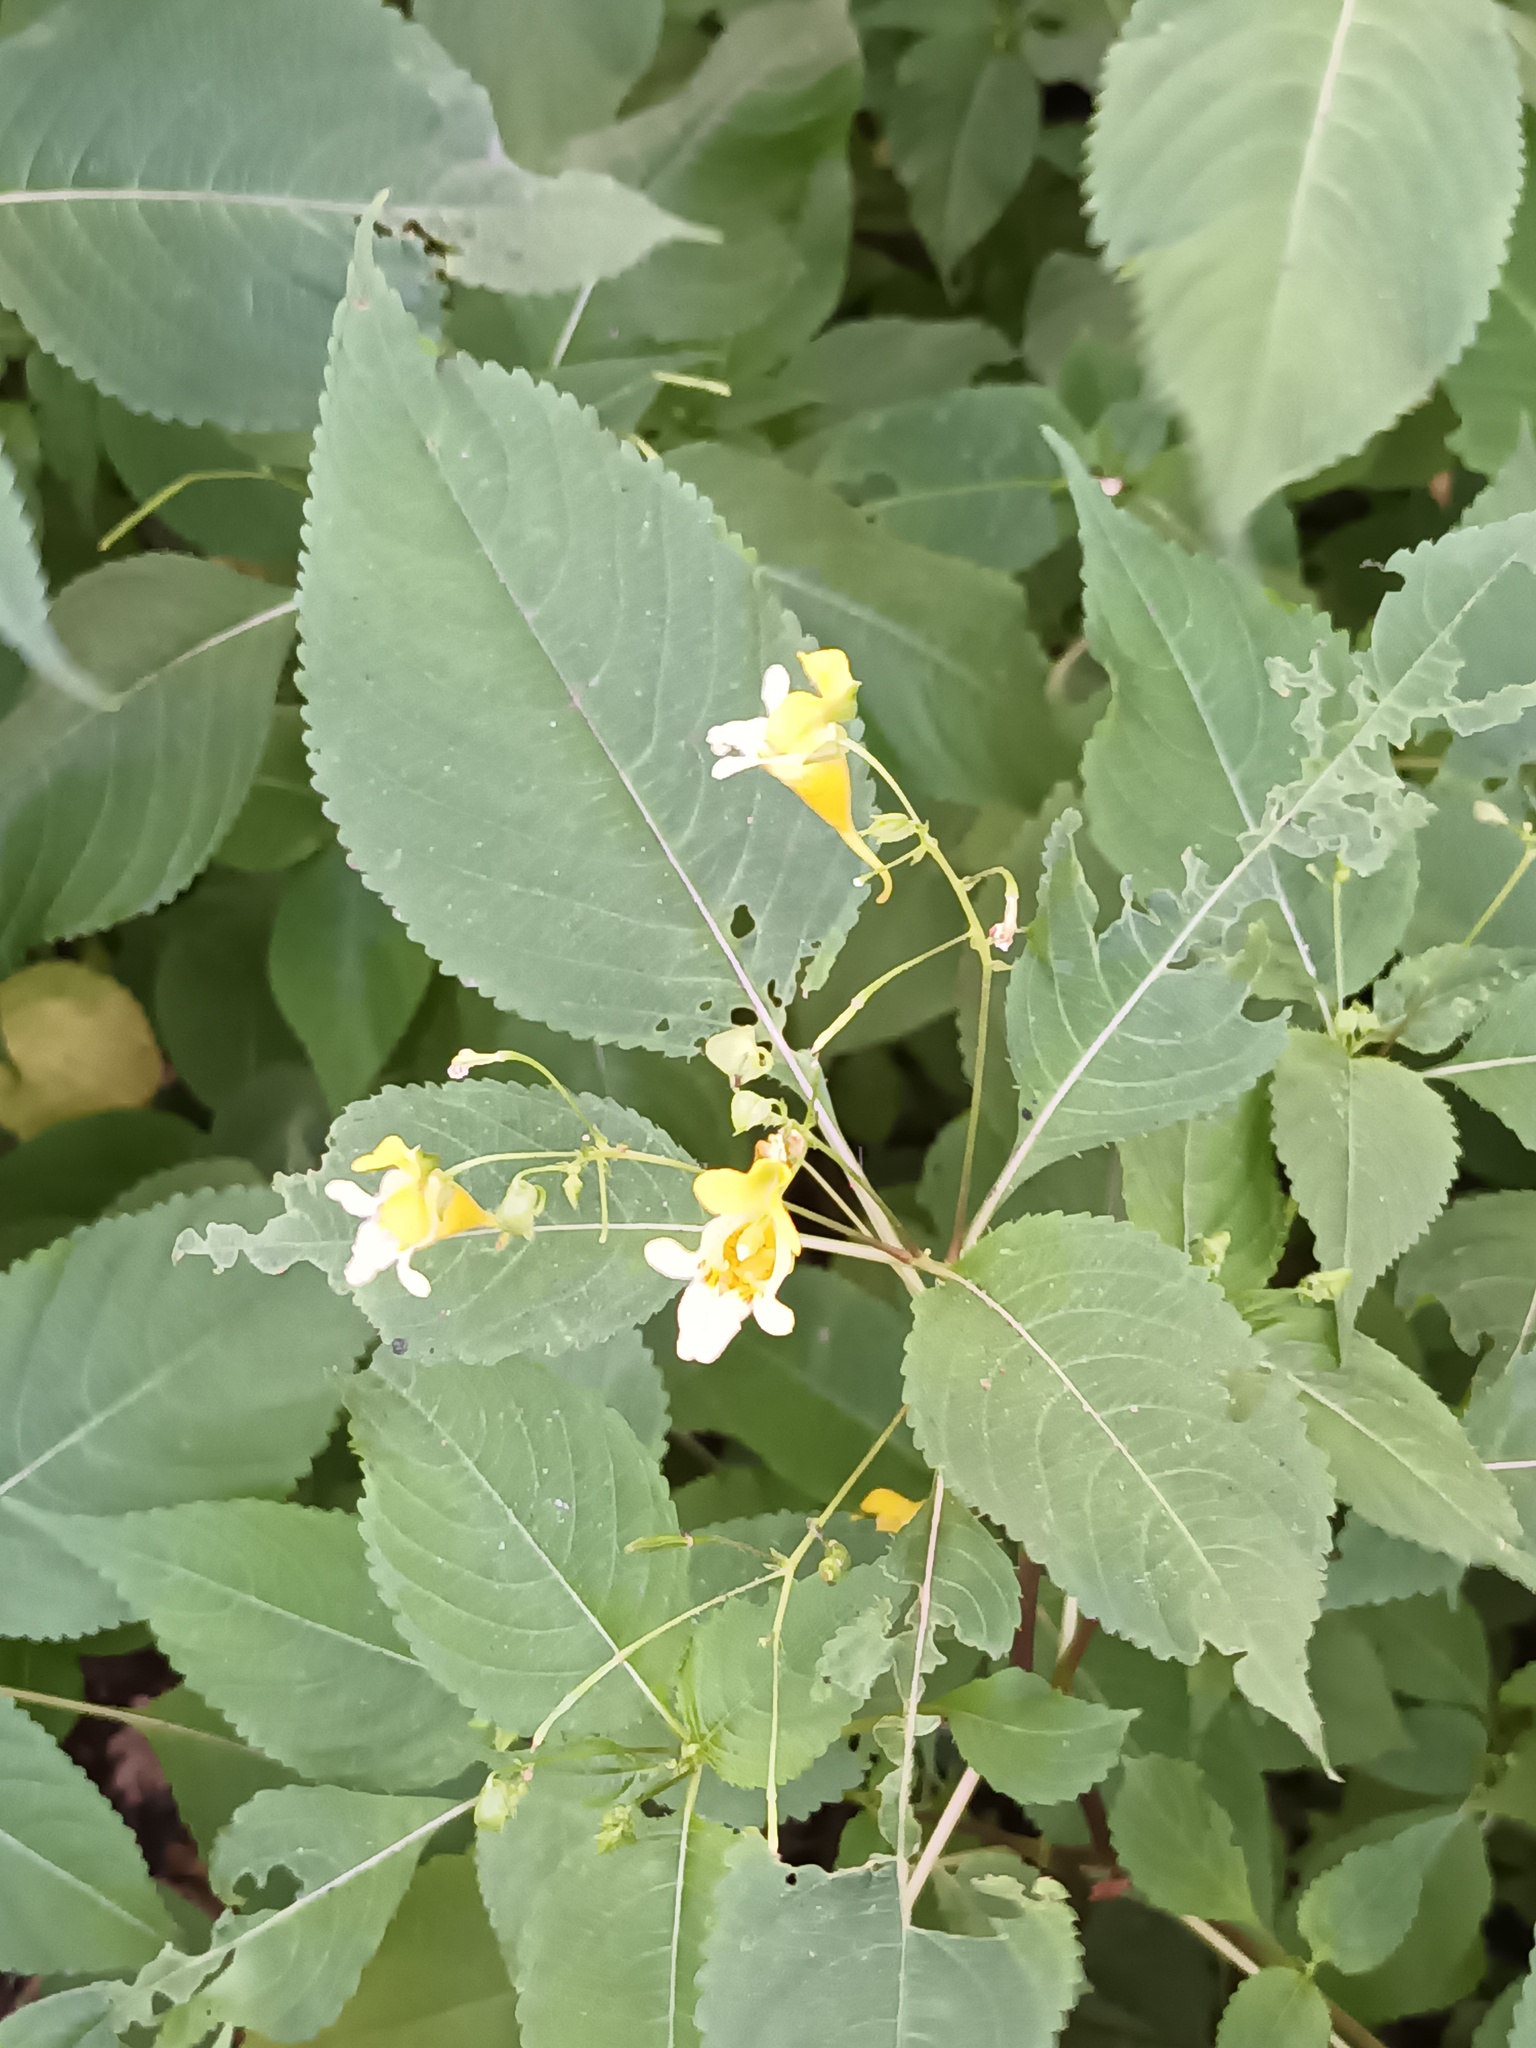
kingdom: Plantae
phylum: Tracheophyta
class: Magnoliopsida
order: Ericales
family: Balsaminaceae
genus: Impatiens
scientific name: Impatiens parviflora
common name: Small balsam
